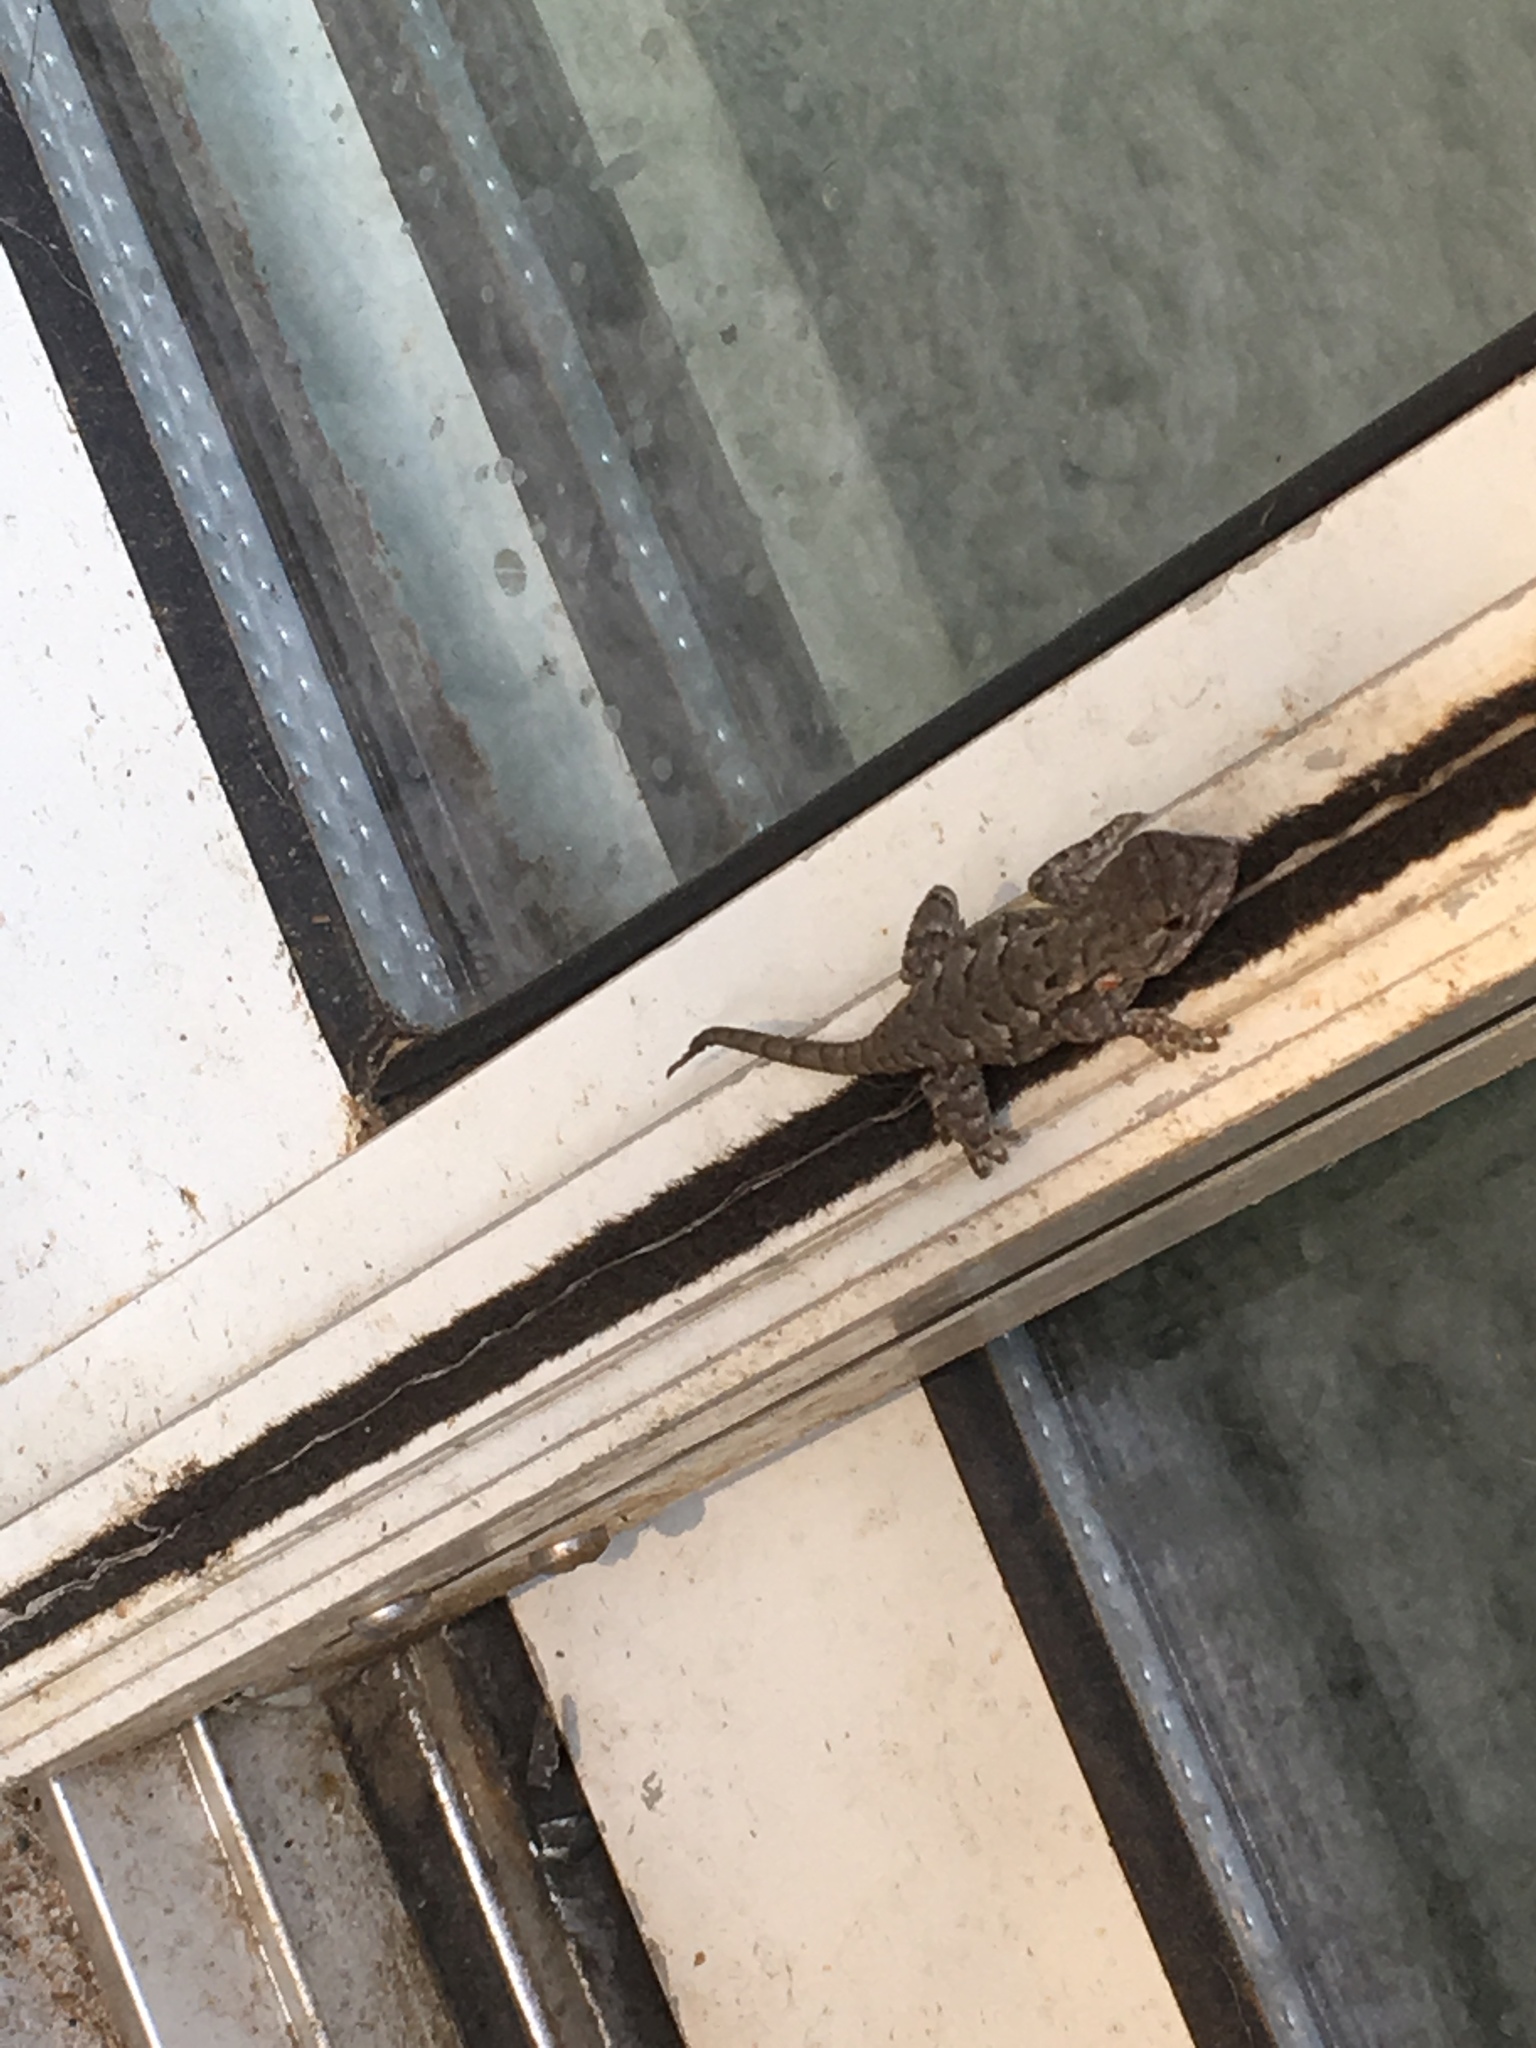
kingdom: Animalia
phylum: Chordata
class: Squamata
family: Phrynosomatidae
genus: Sceloporus
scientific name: Sceloporus undulatus
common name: Eastern fence lizard
